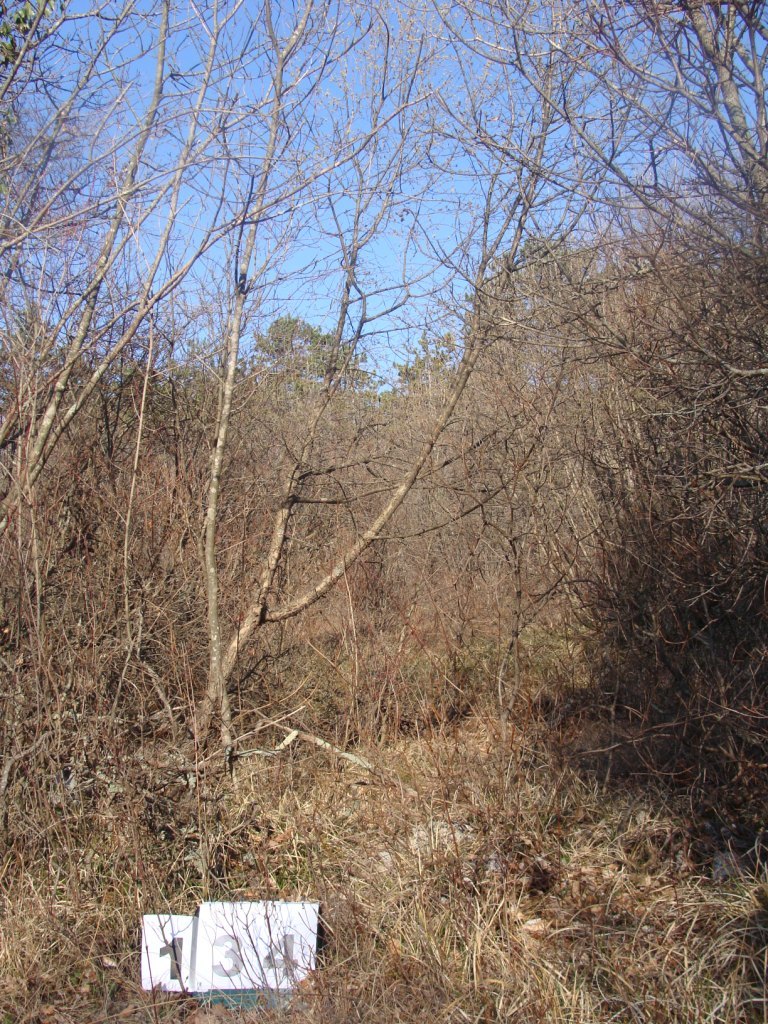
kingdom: Plantae
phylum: Tracheophyta
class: Magnoliopsida
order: Cornales
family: Cornaceae
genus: Cornus
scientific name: Cornus mas
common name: Cornelian-cherry
